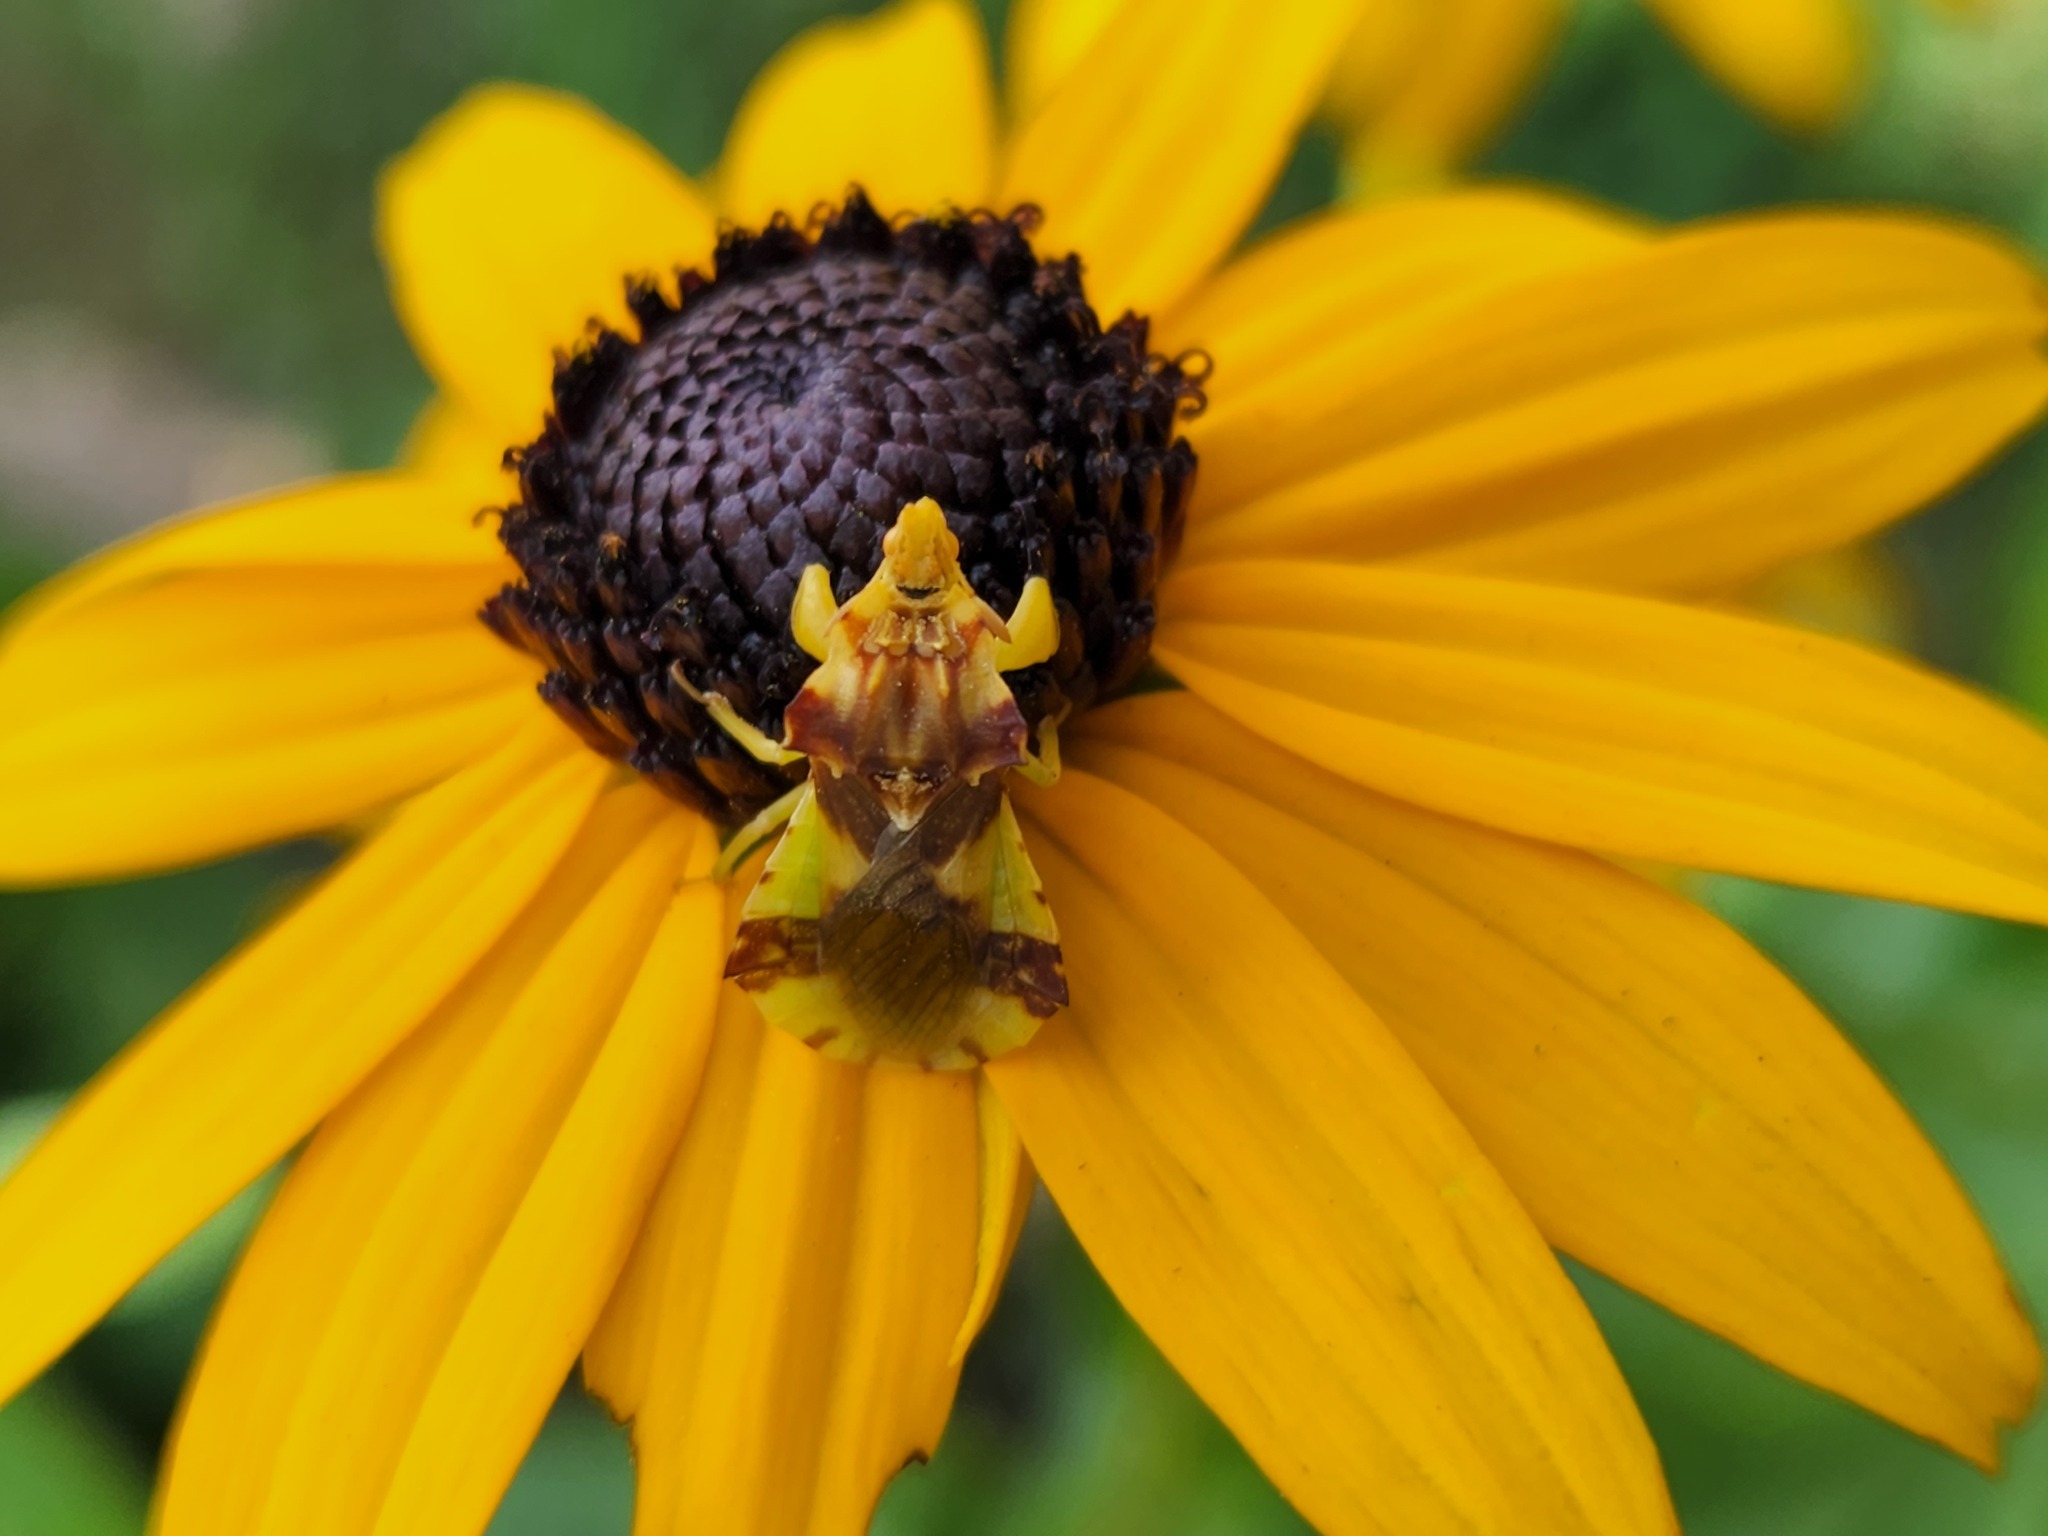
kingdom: Animalia
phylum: Arthropoda
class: Insecta
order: Hemiptera
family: Reduviidae
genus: Phymata
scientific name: Phymata americana
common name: Jagged ambush bug
